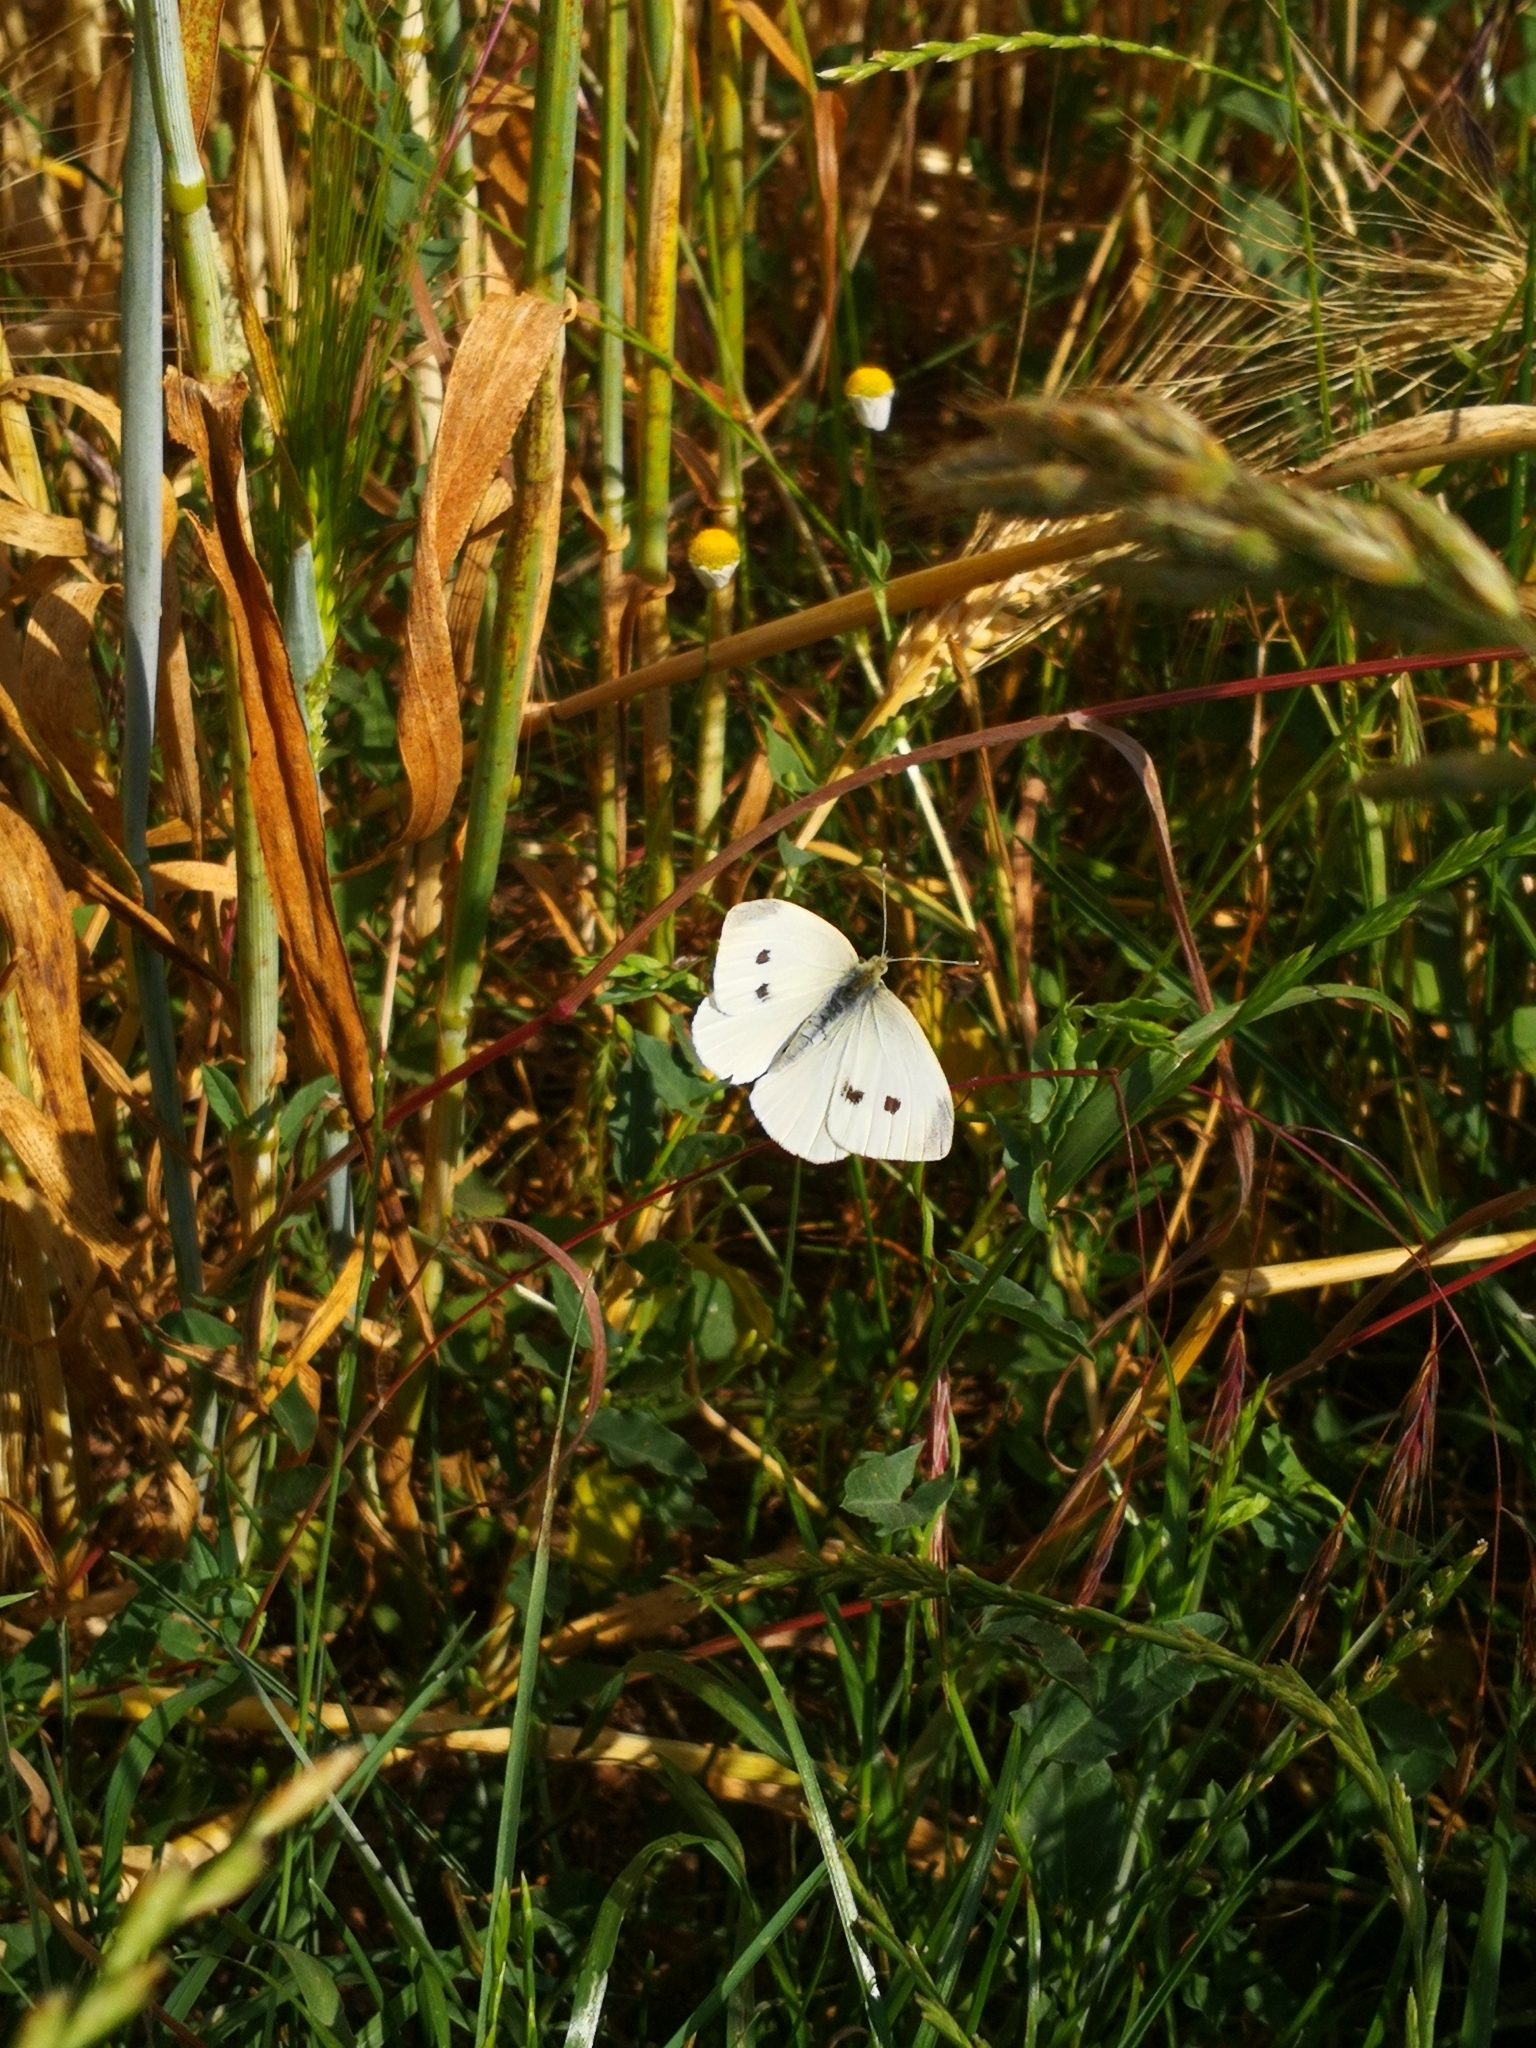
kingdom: Animalia
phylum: Arthropoda
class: Insecta
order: Lepidoptera
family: Pieridae
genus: Pieris
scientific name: Pieris rapae
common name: Small white
